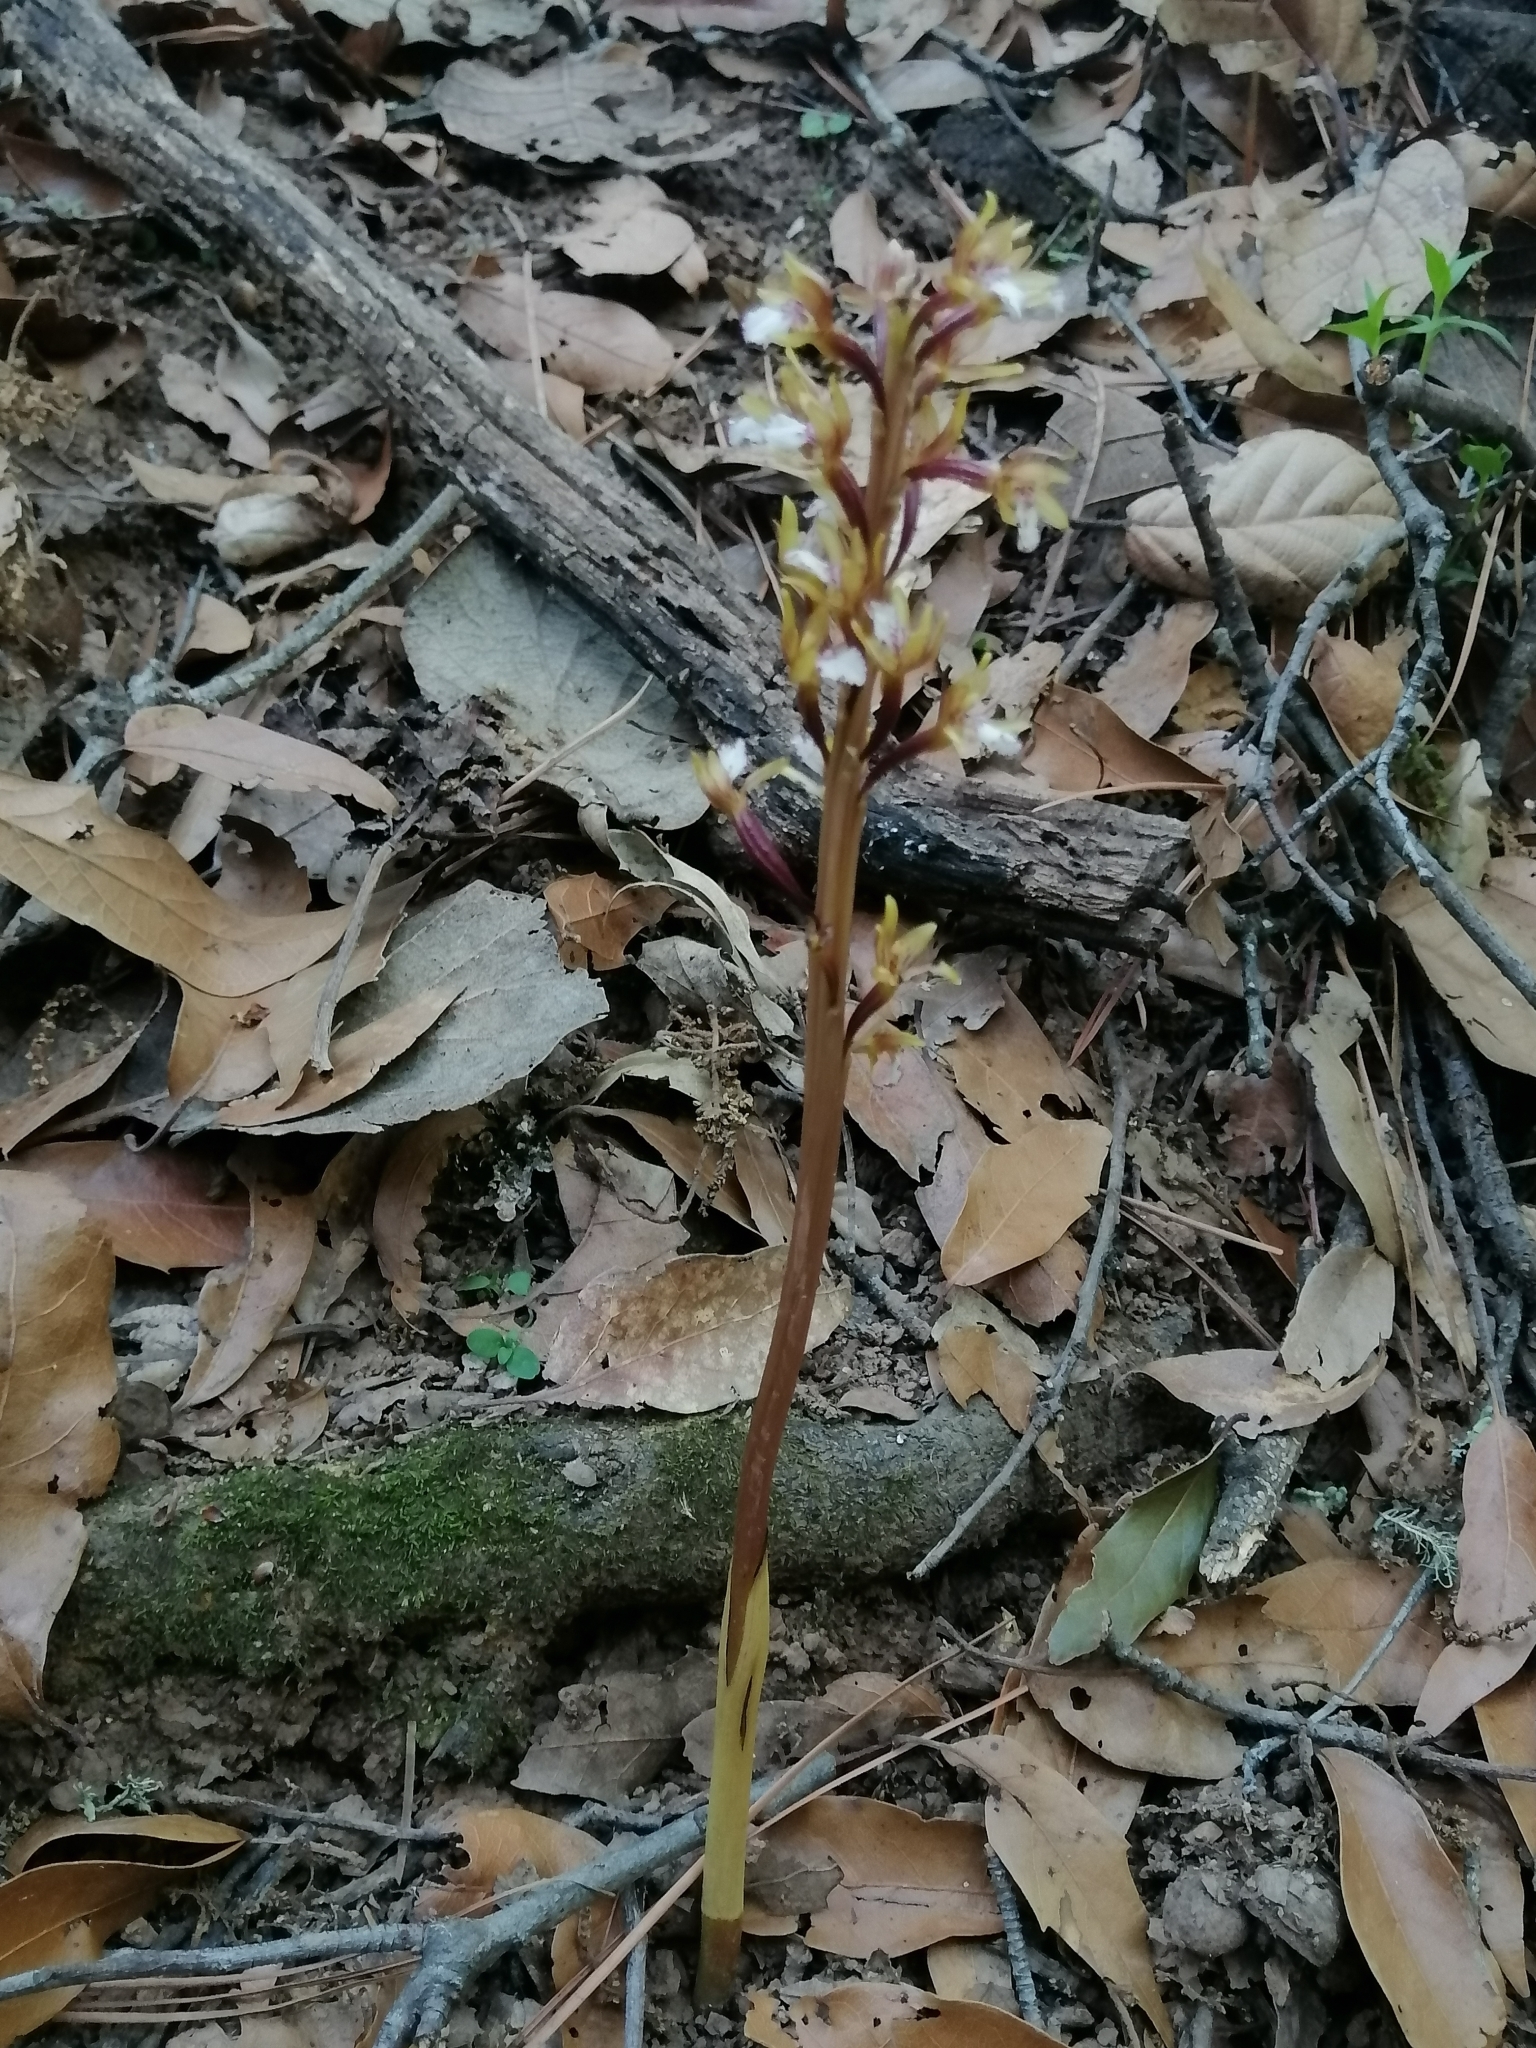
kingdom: Plantae
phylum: Tracheophyta
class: Liliopsida
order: Asparagales
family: Orchidaceae
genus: Corallorhiza
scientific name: Corallorhiza maculata
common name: Spotted coralroot
